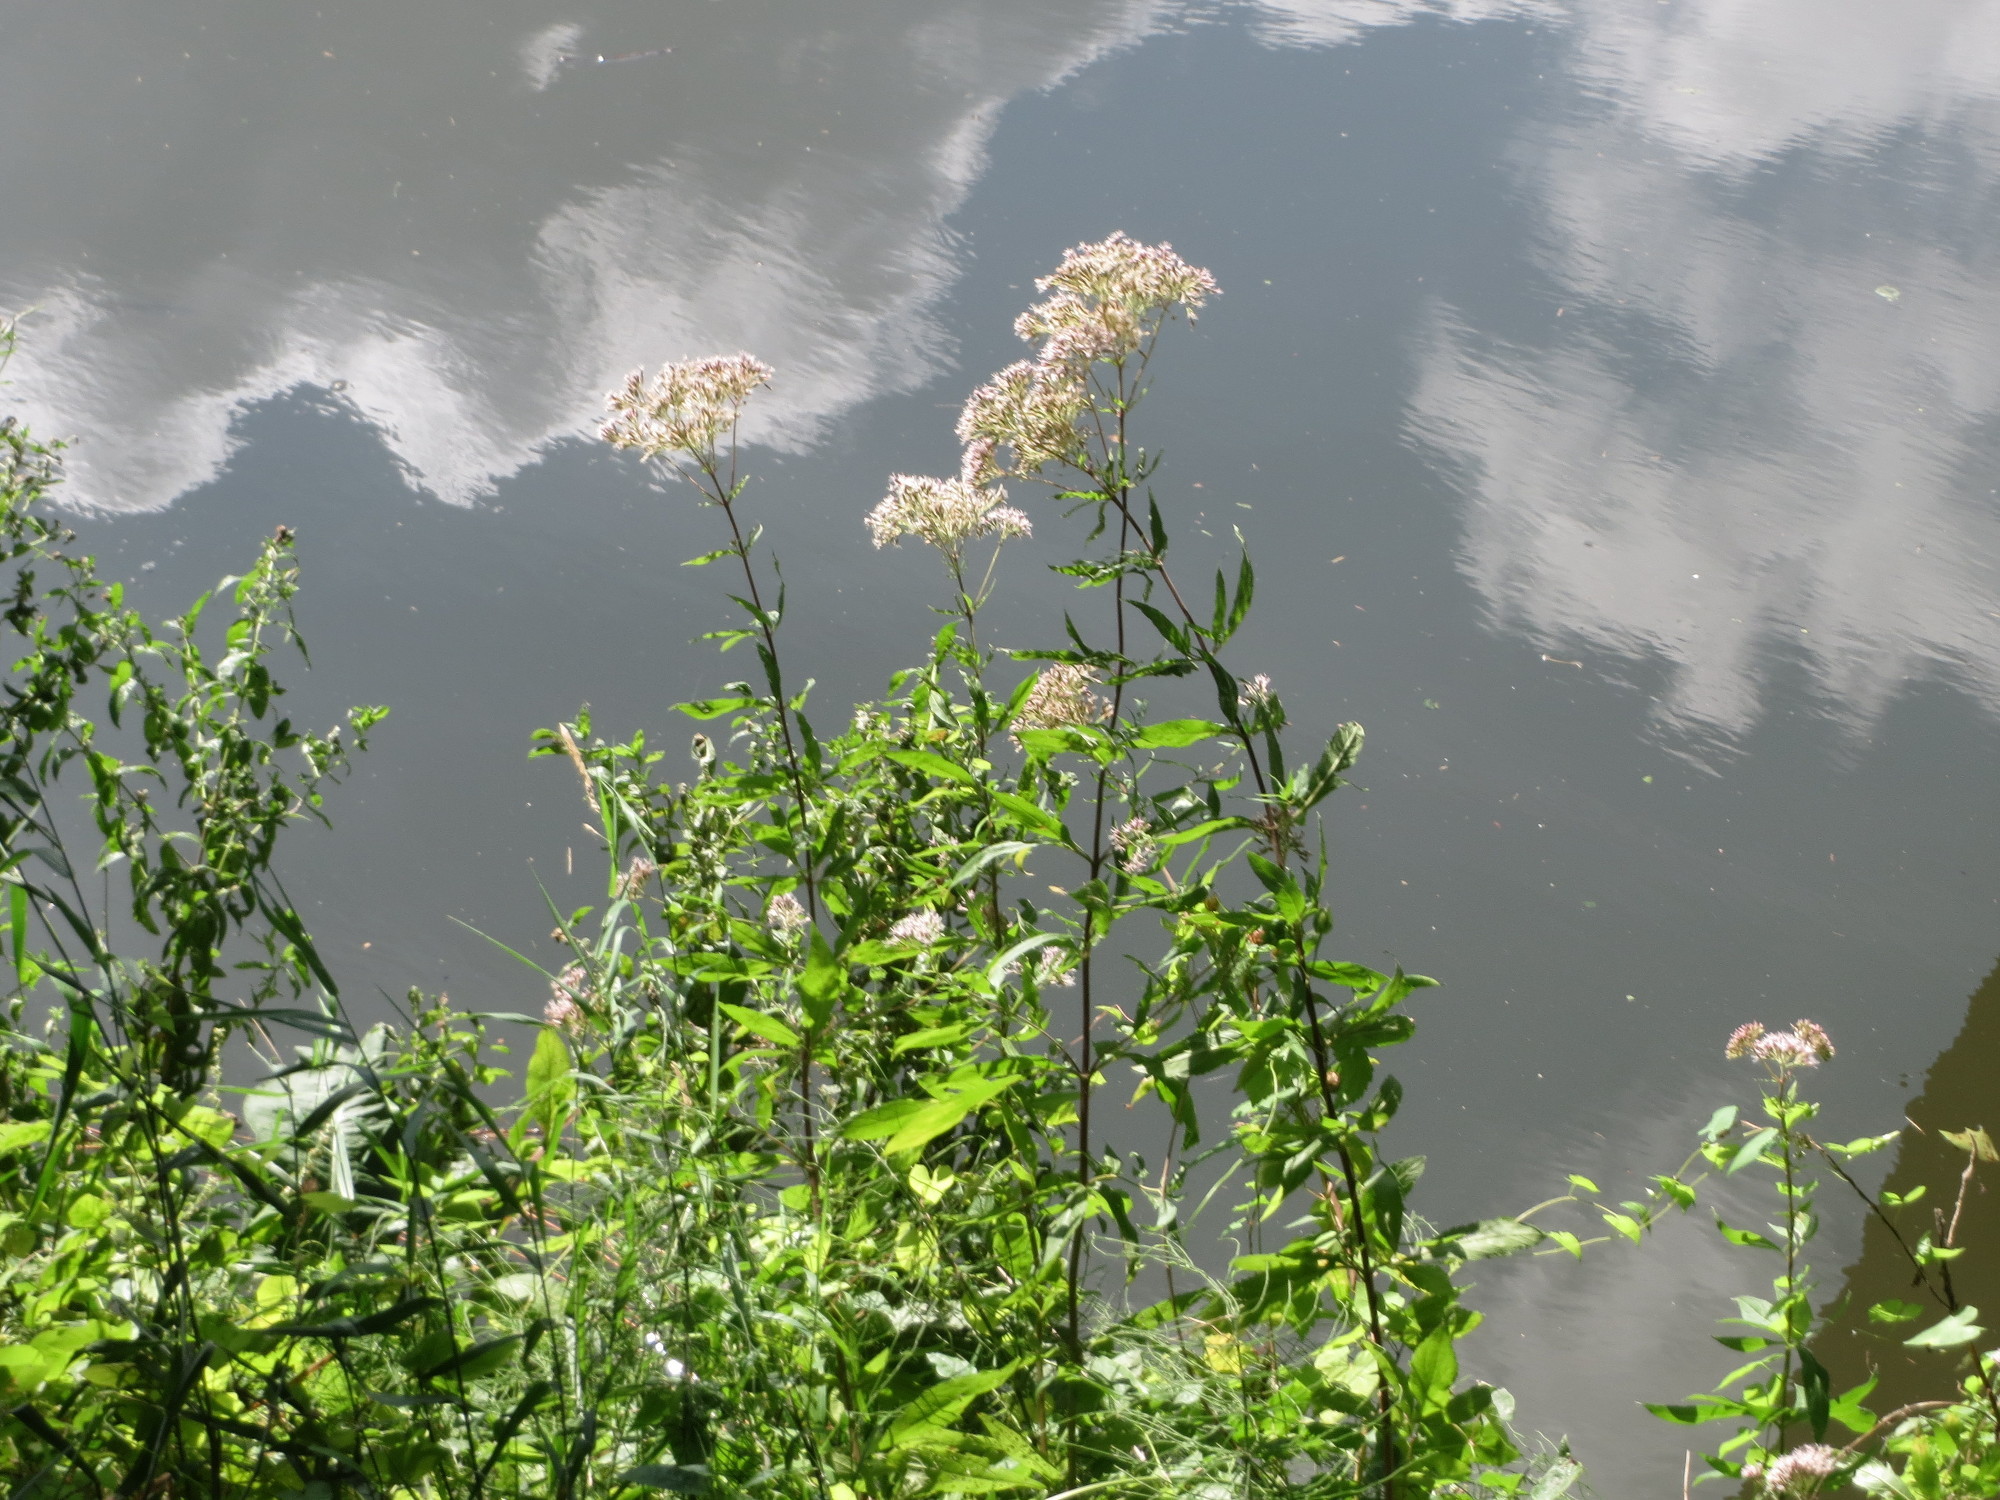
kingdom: Plantae
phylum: Tracheophyta
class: Magnoliopsida
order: Asterales
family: Asteraceae
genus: Eupatorium
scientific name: Eupatorium cannabinum
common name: Hemp-agrimony
